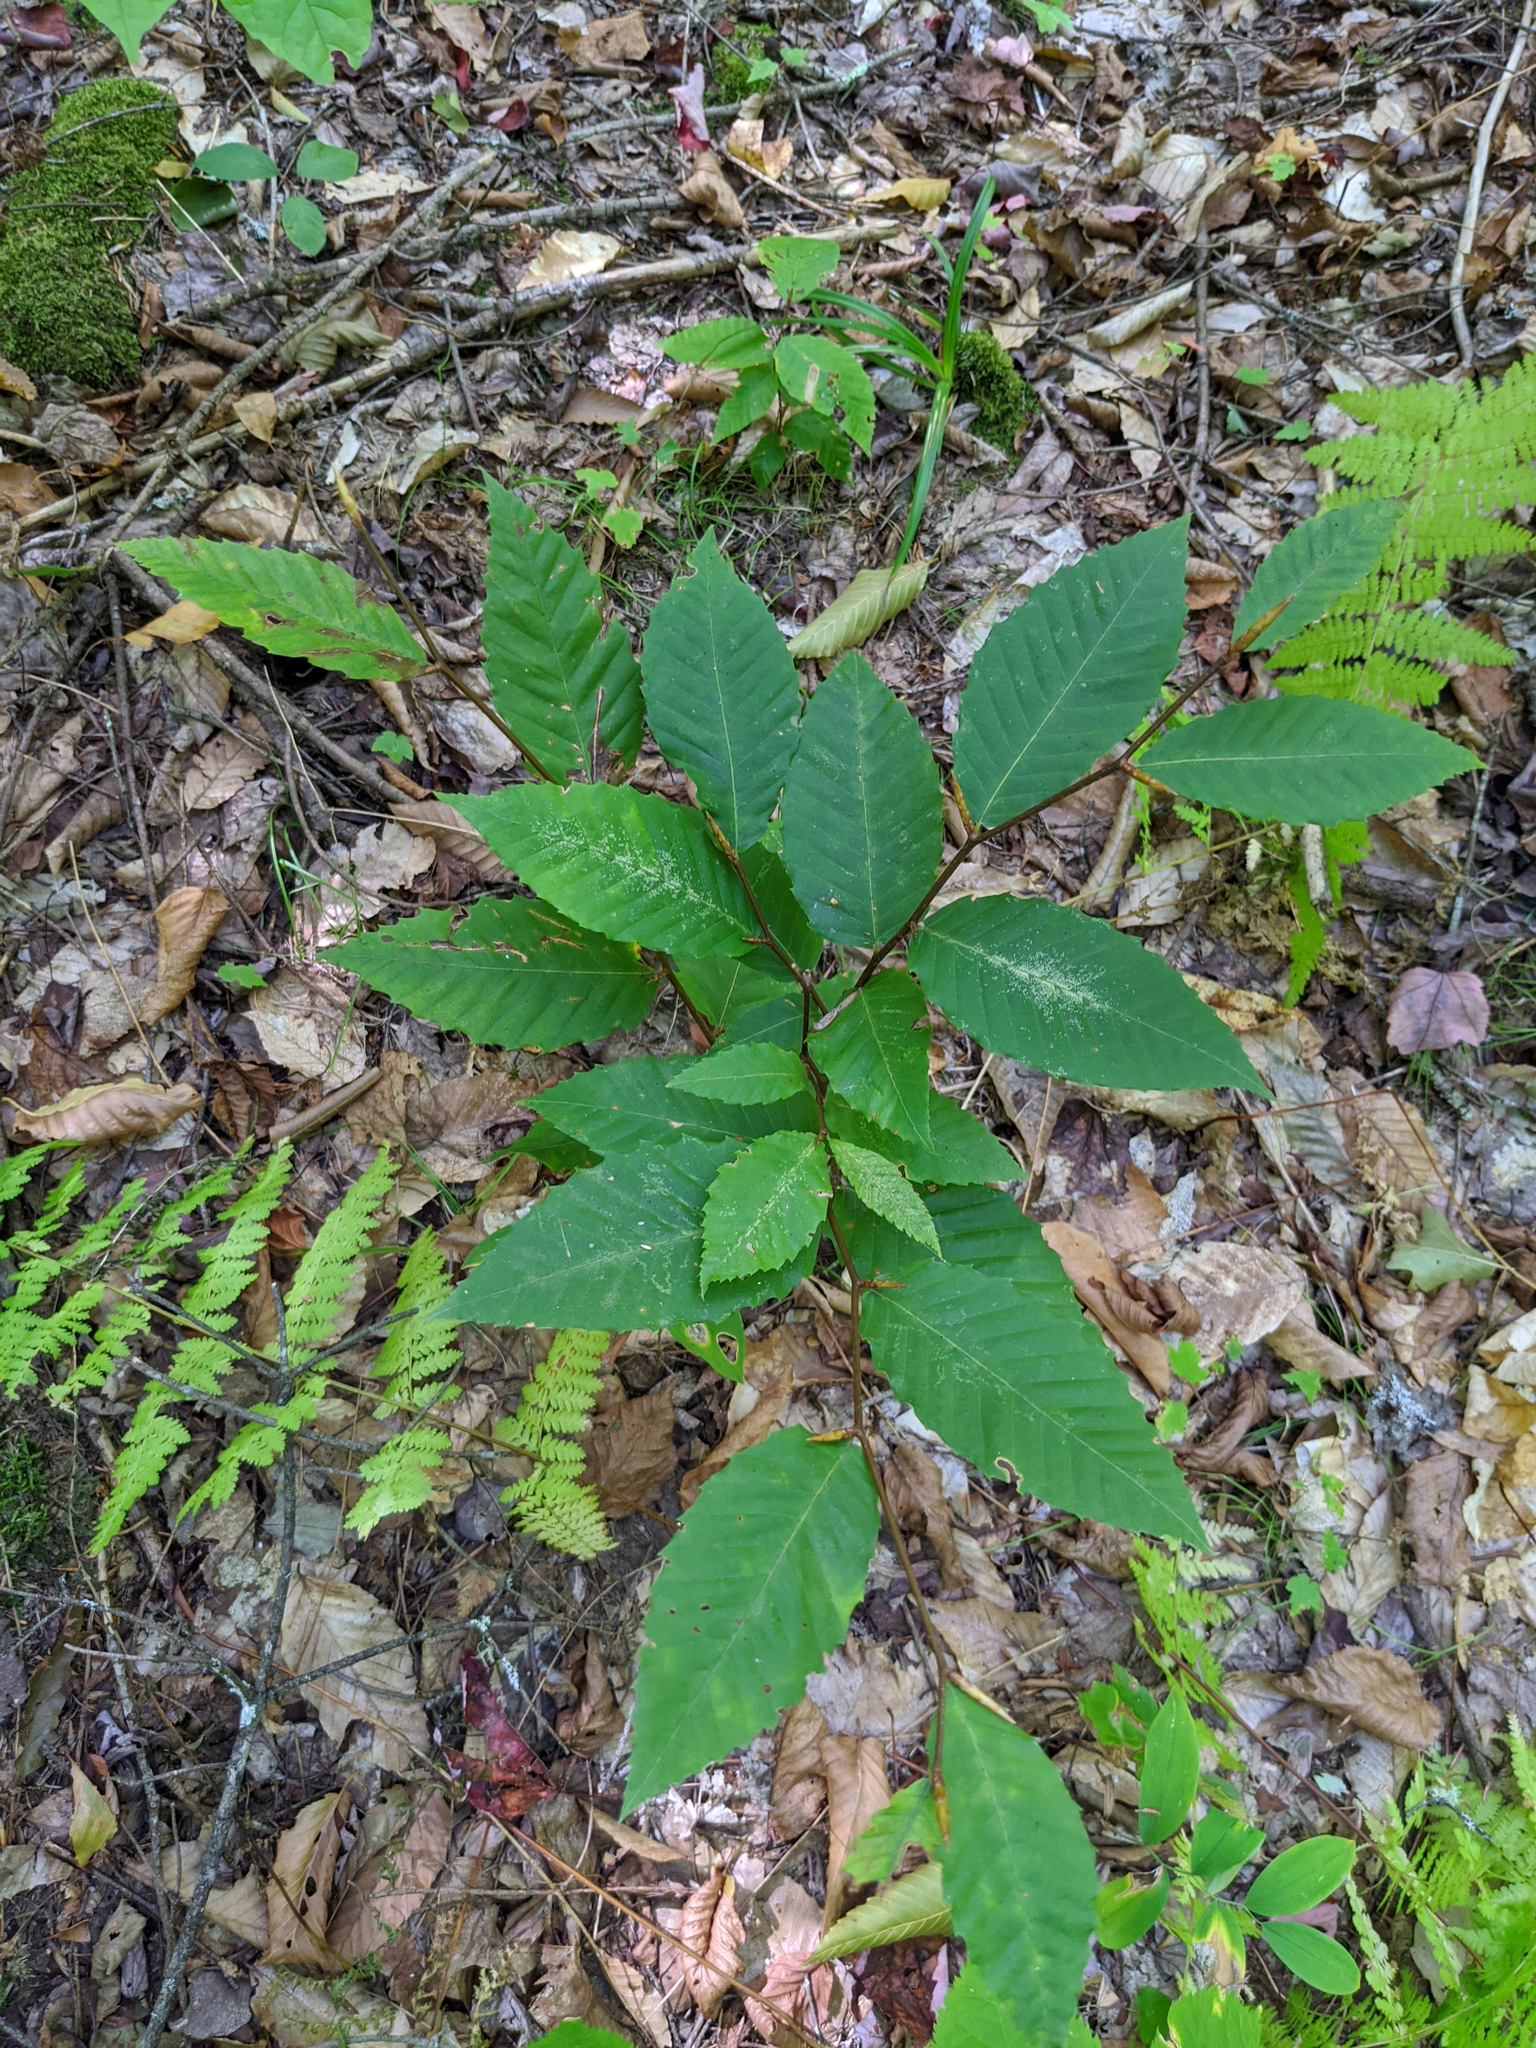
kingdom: Plantae
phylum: Tracheophyta
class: Magnoliopsida
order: Fagales
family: Fagaceae
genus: Fagus
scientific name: Fagus grandifolia
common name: American beech
